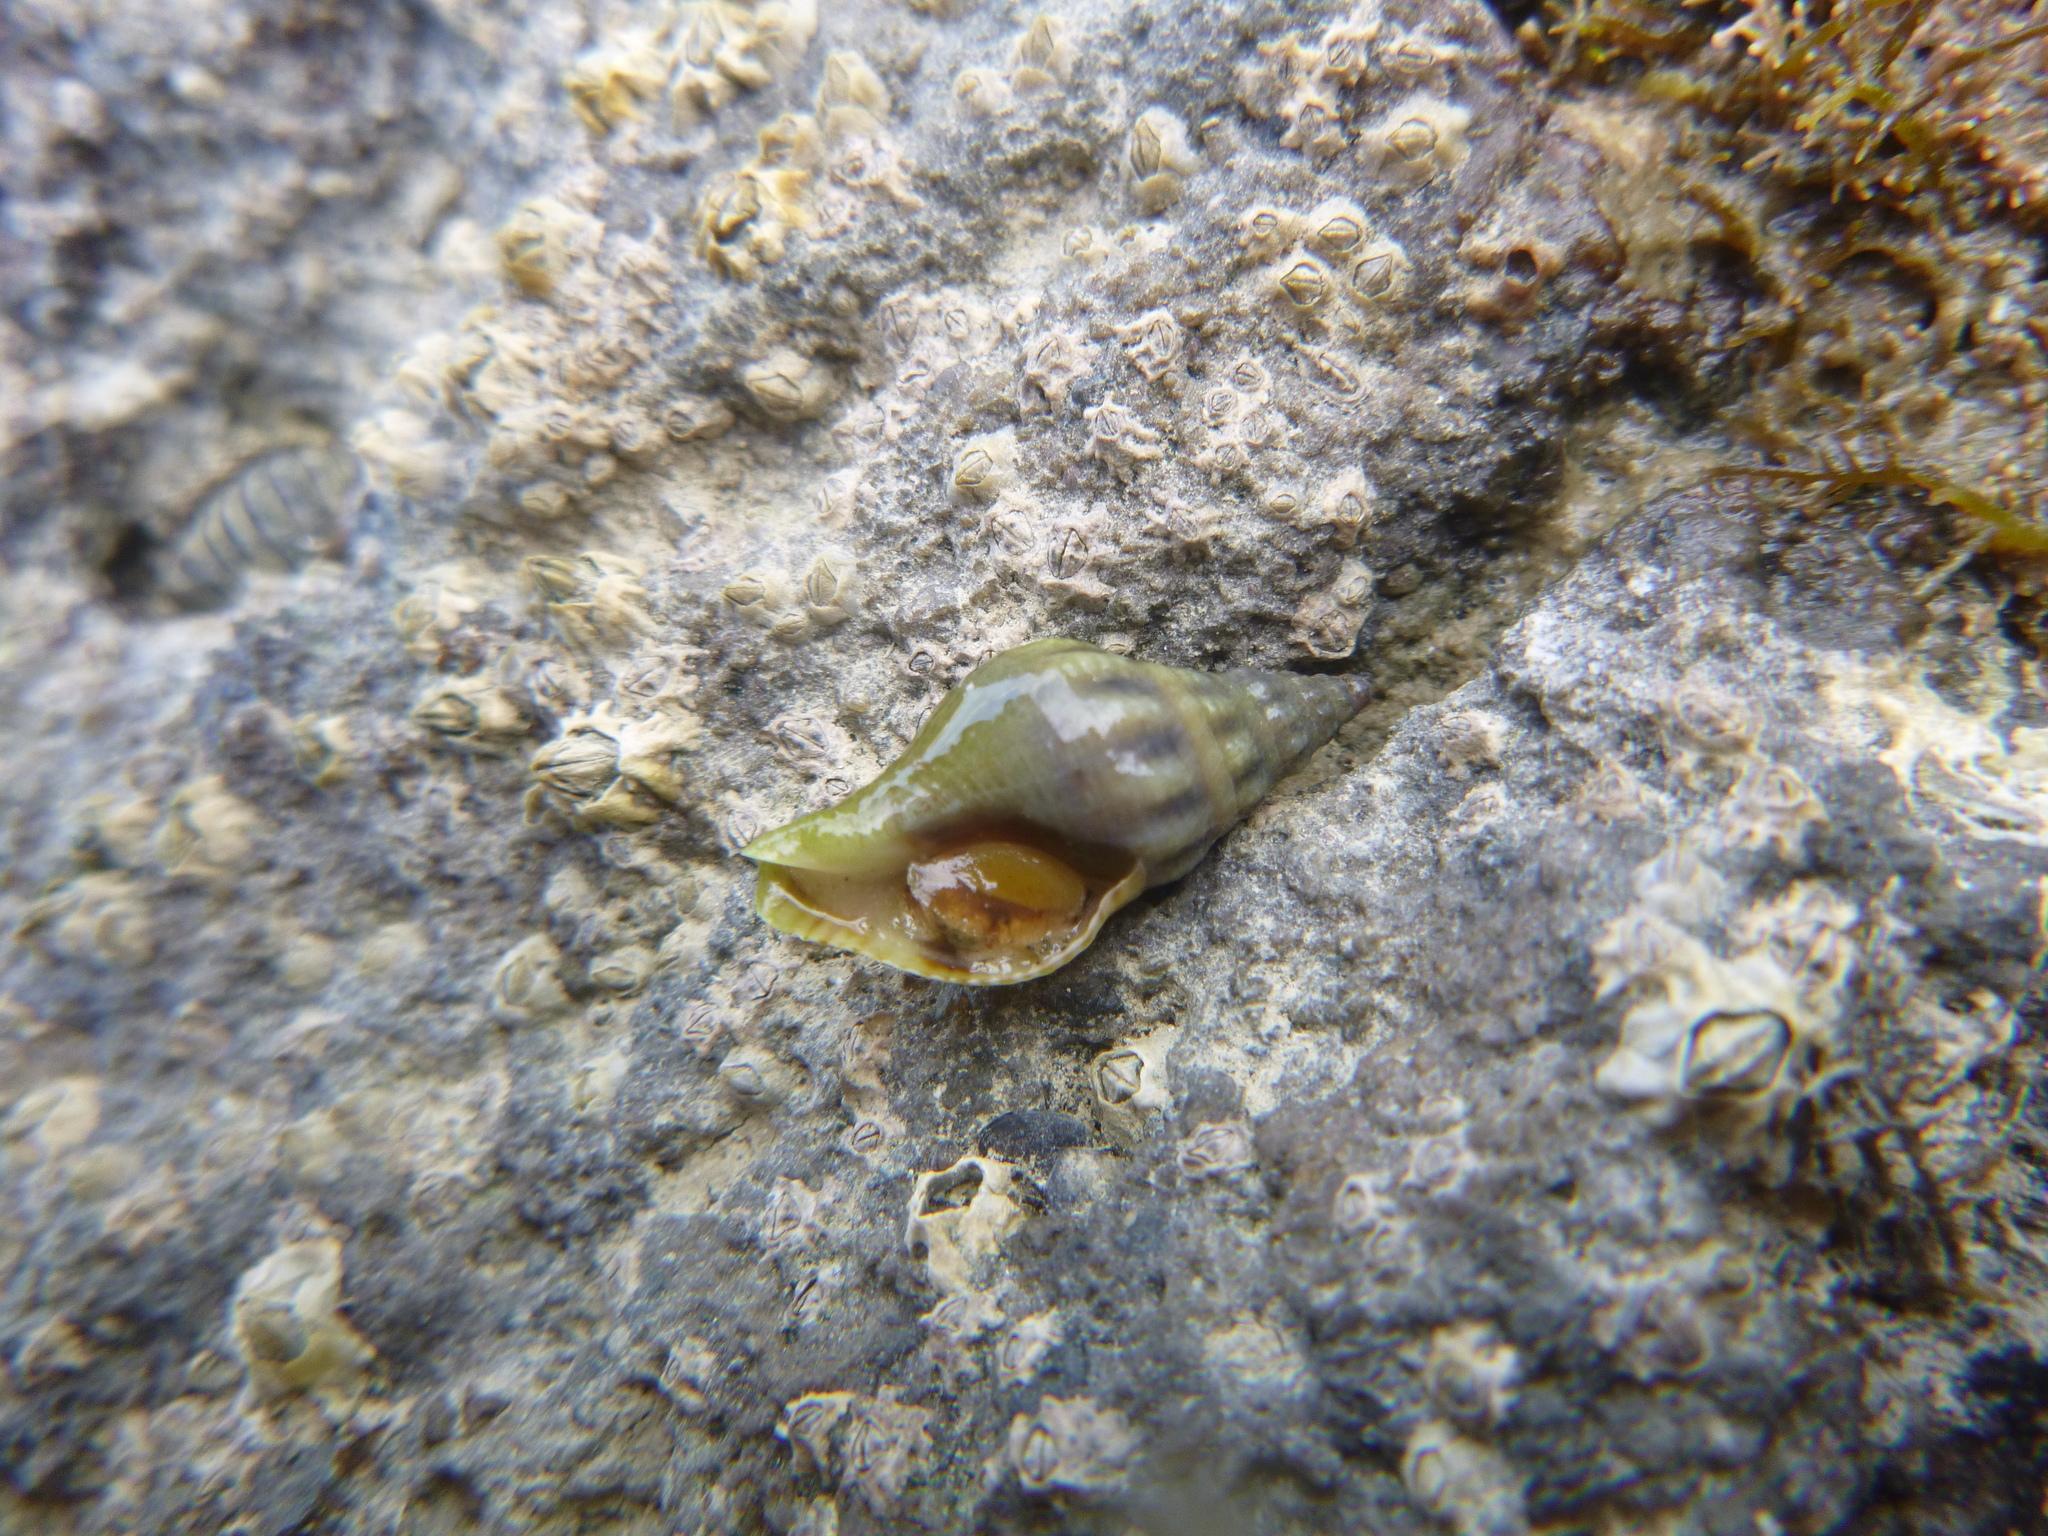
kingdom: Animalia
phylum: Mollusca
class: Gastropoda
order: Neogastropoda
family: Tudiclidae
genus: Buccinulum
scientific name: Buccinulum vittatum
